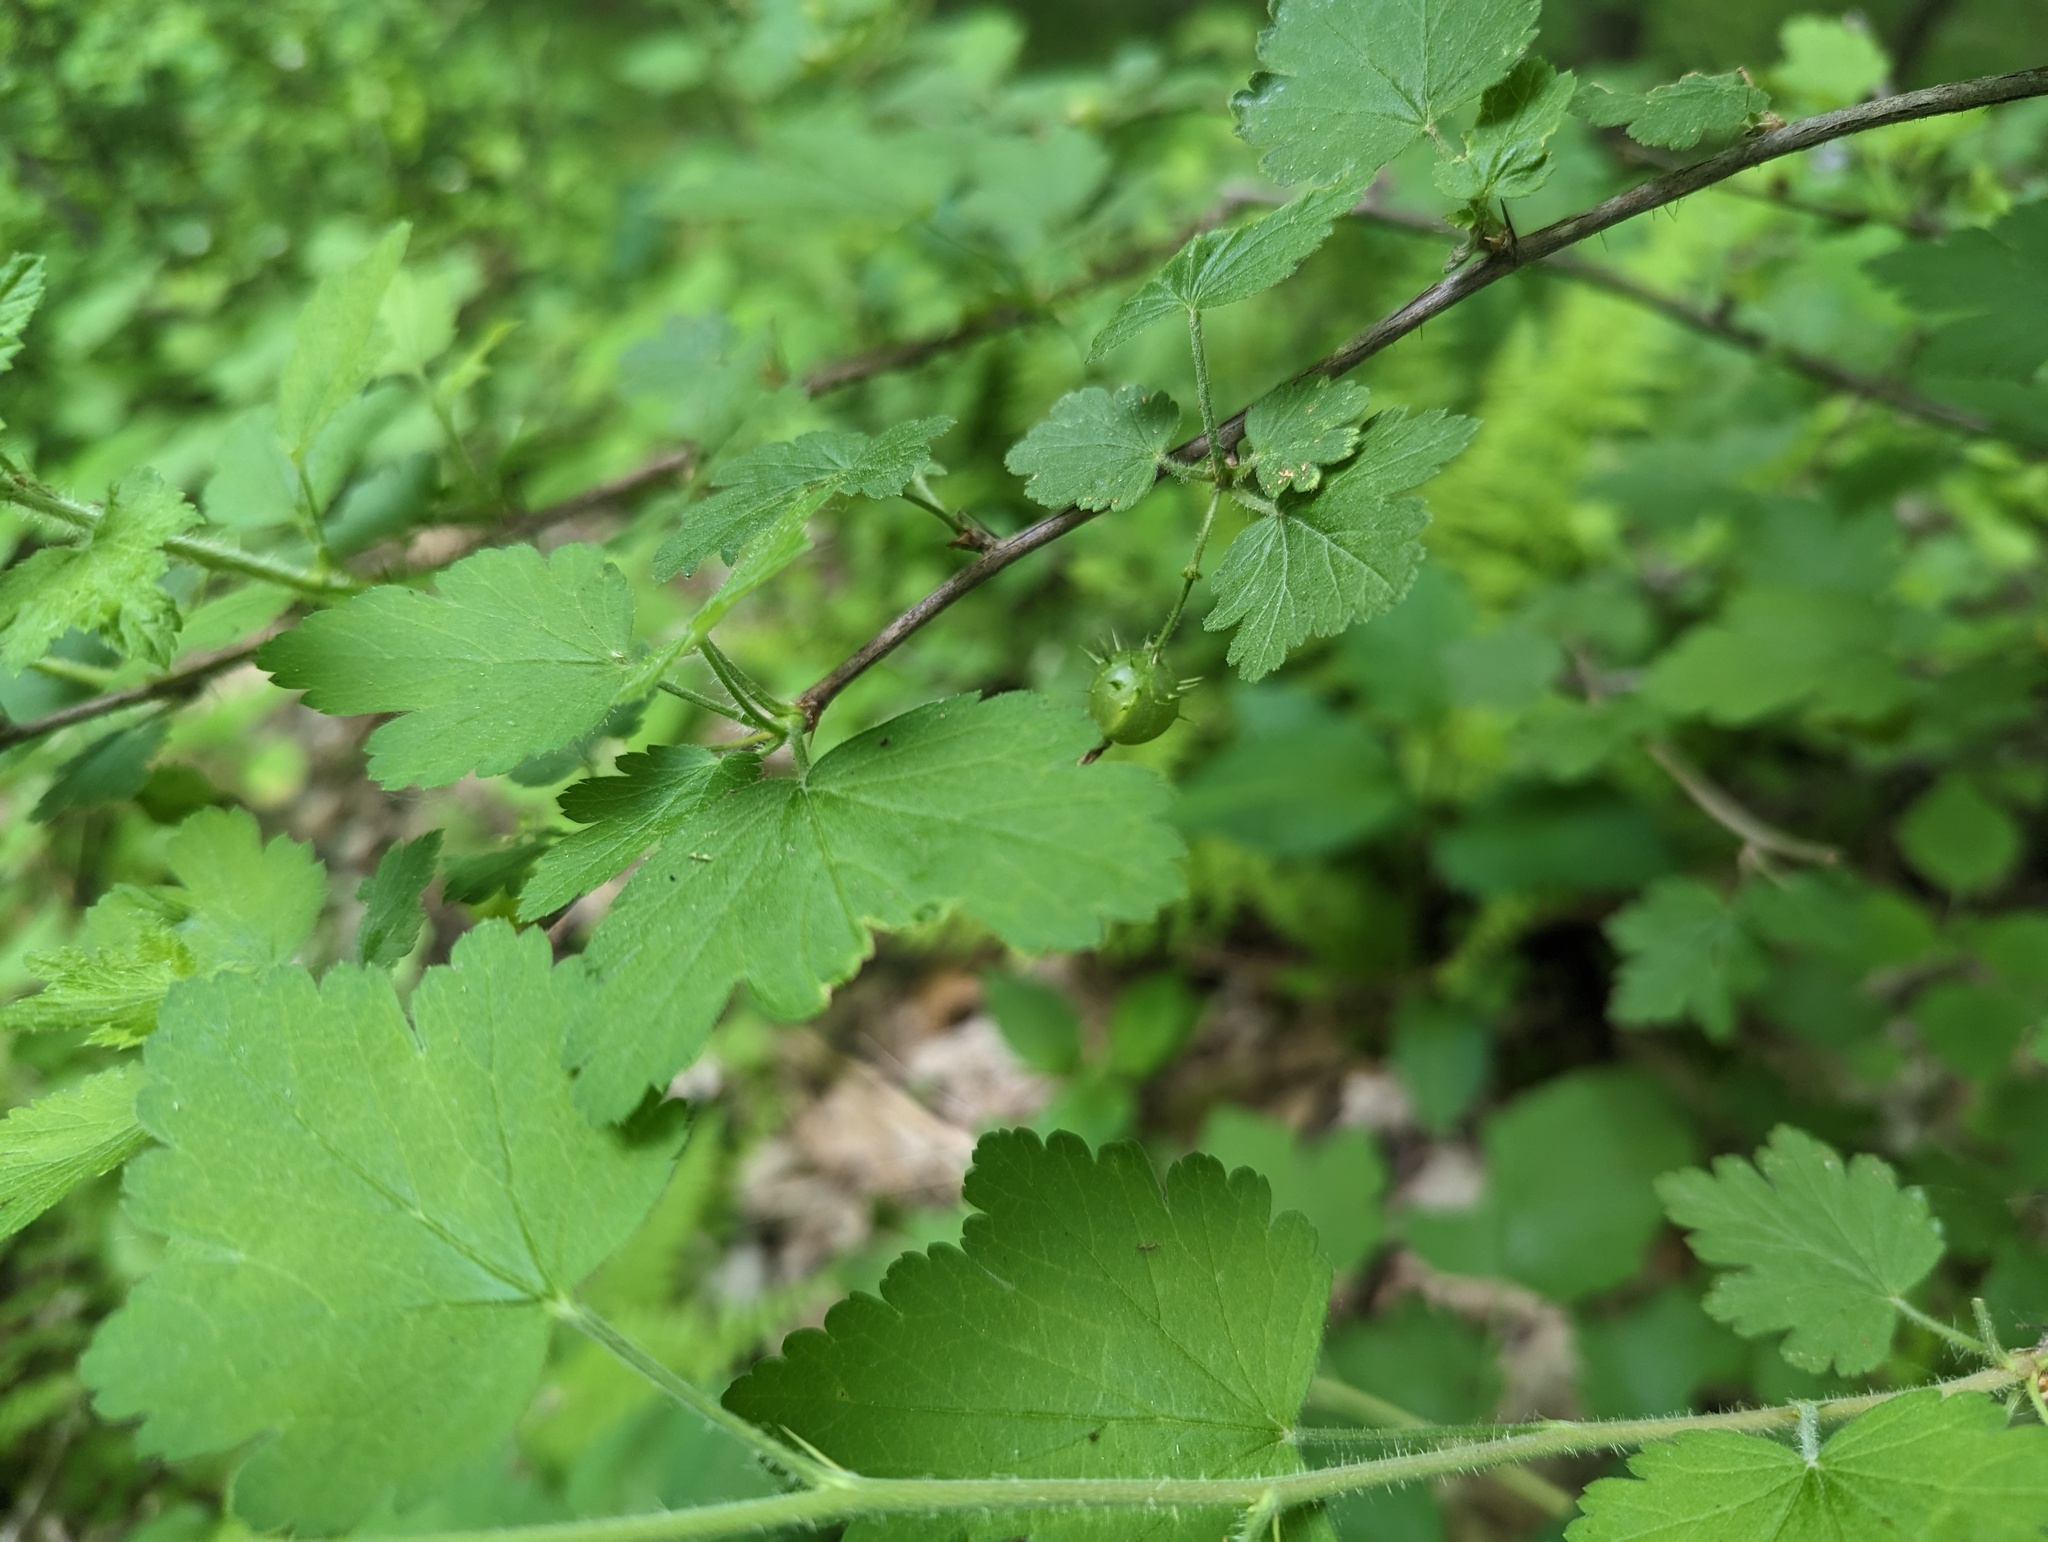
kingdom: Plantae
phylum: Tracheophyta
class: Magnoliopsida
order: Saxifragales
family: Grossulariaceae
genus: Ribes
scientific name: Ribes cynosbati
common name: American gooseberry
